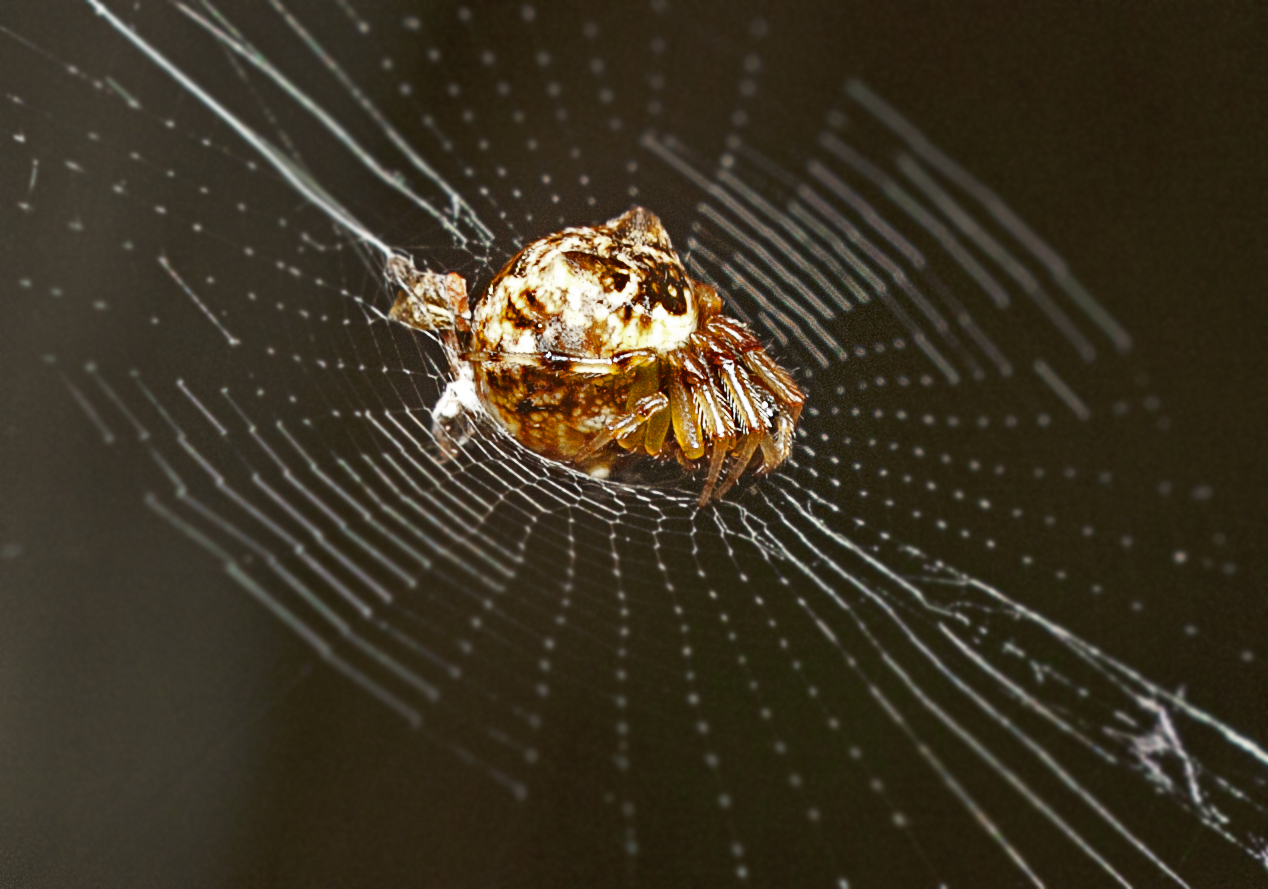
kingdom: Animalia
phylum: Arthropoda
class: Arachnida
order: Araneae
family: Araneidae
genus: Cyclosa
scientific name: Cyclosa vallata
